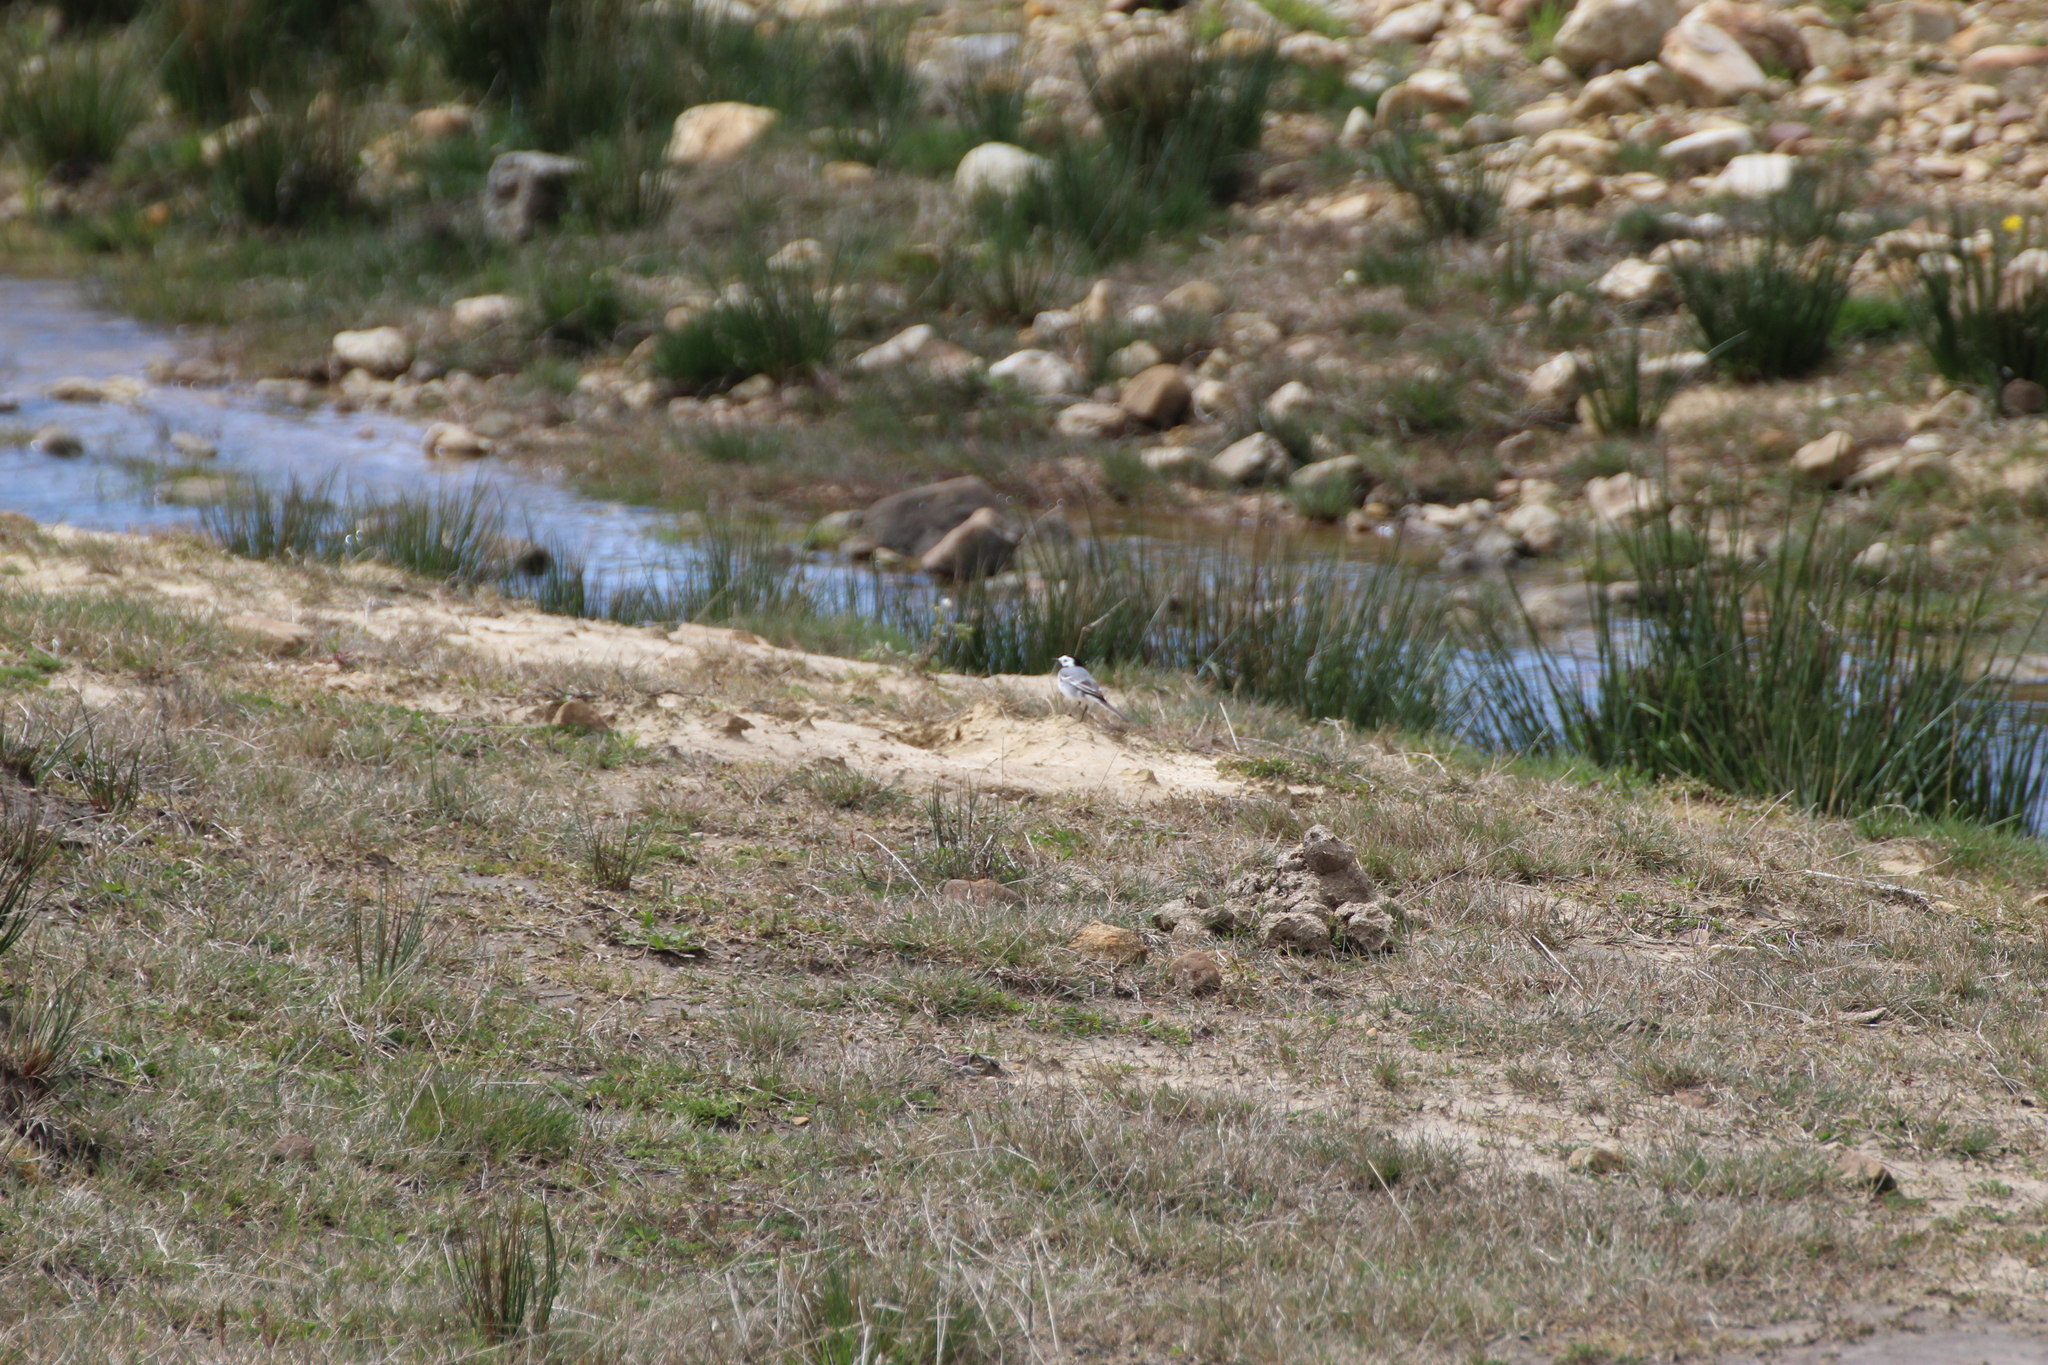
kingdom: Animalia
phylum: Chordata
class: Aves
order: Passeriformes
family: Motacillidae
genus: Motacilla
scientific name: Motacilla alba
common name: White wagtail
